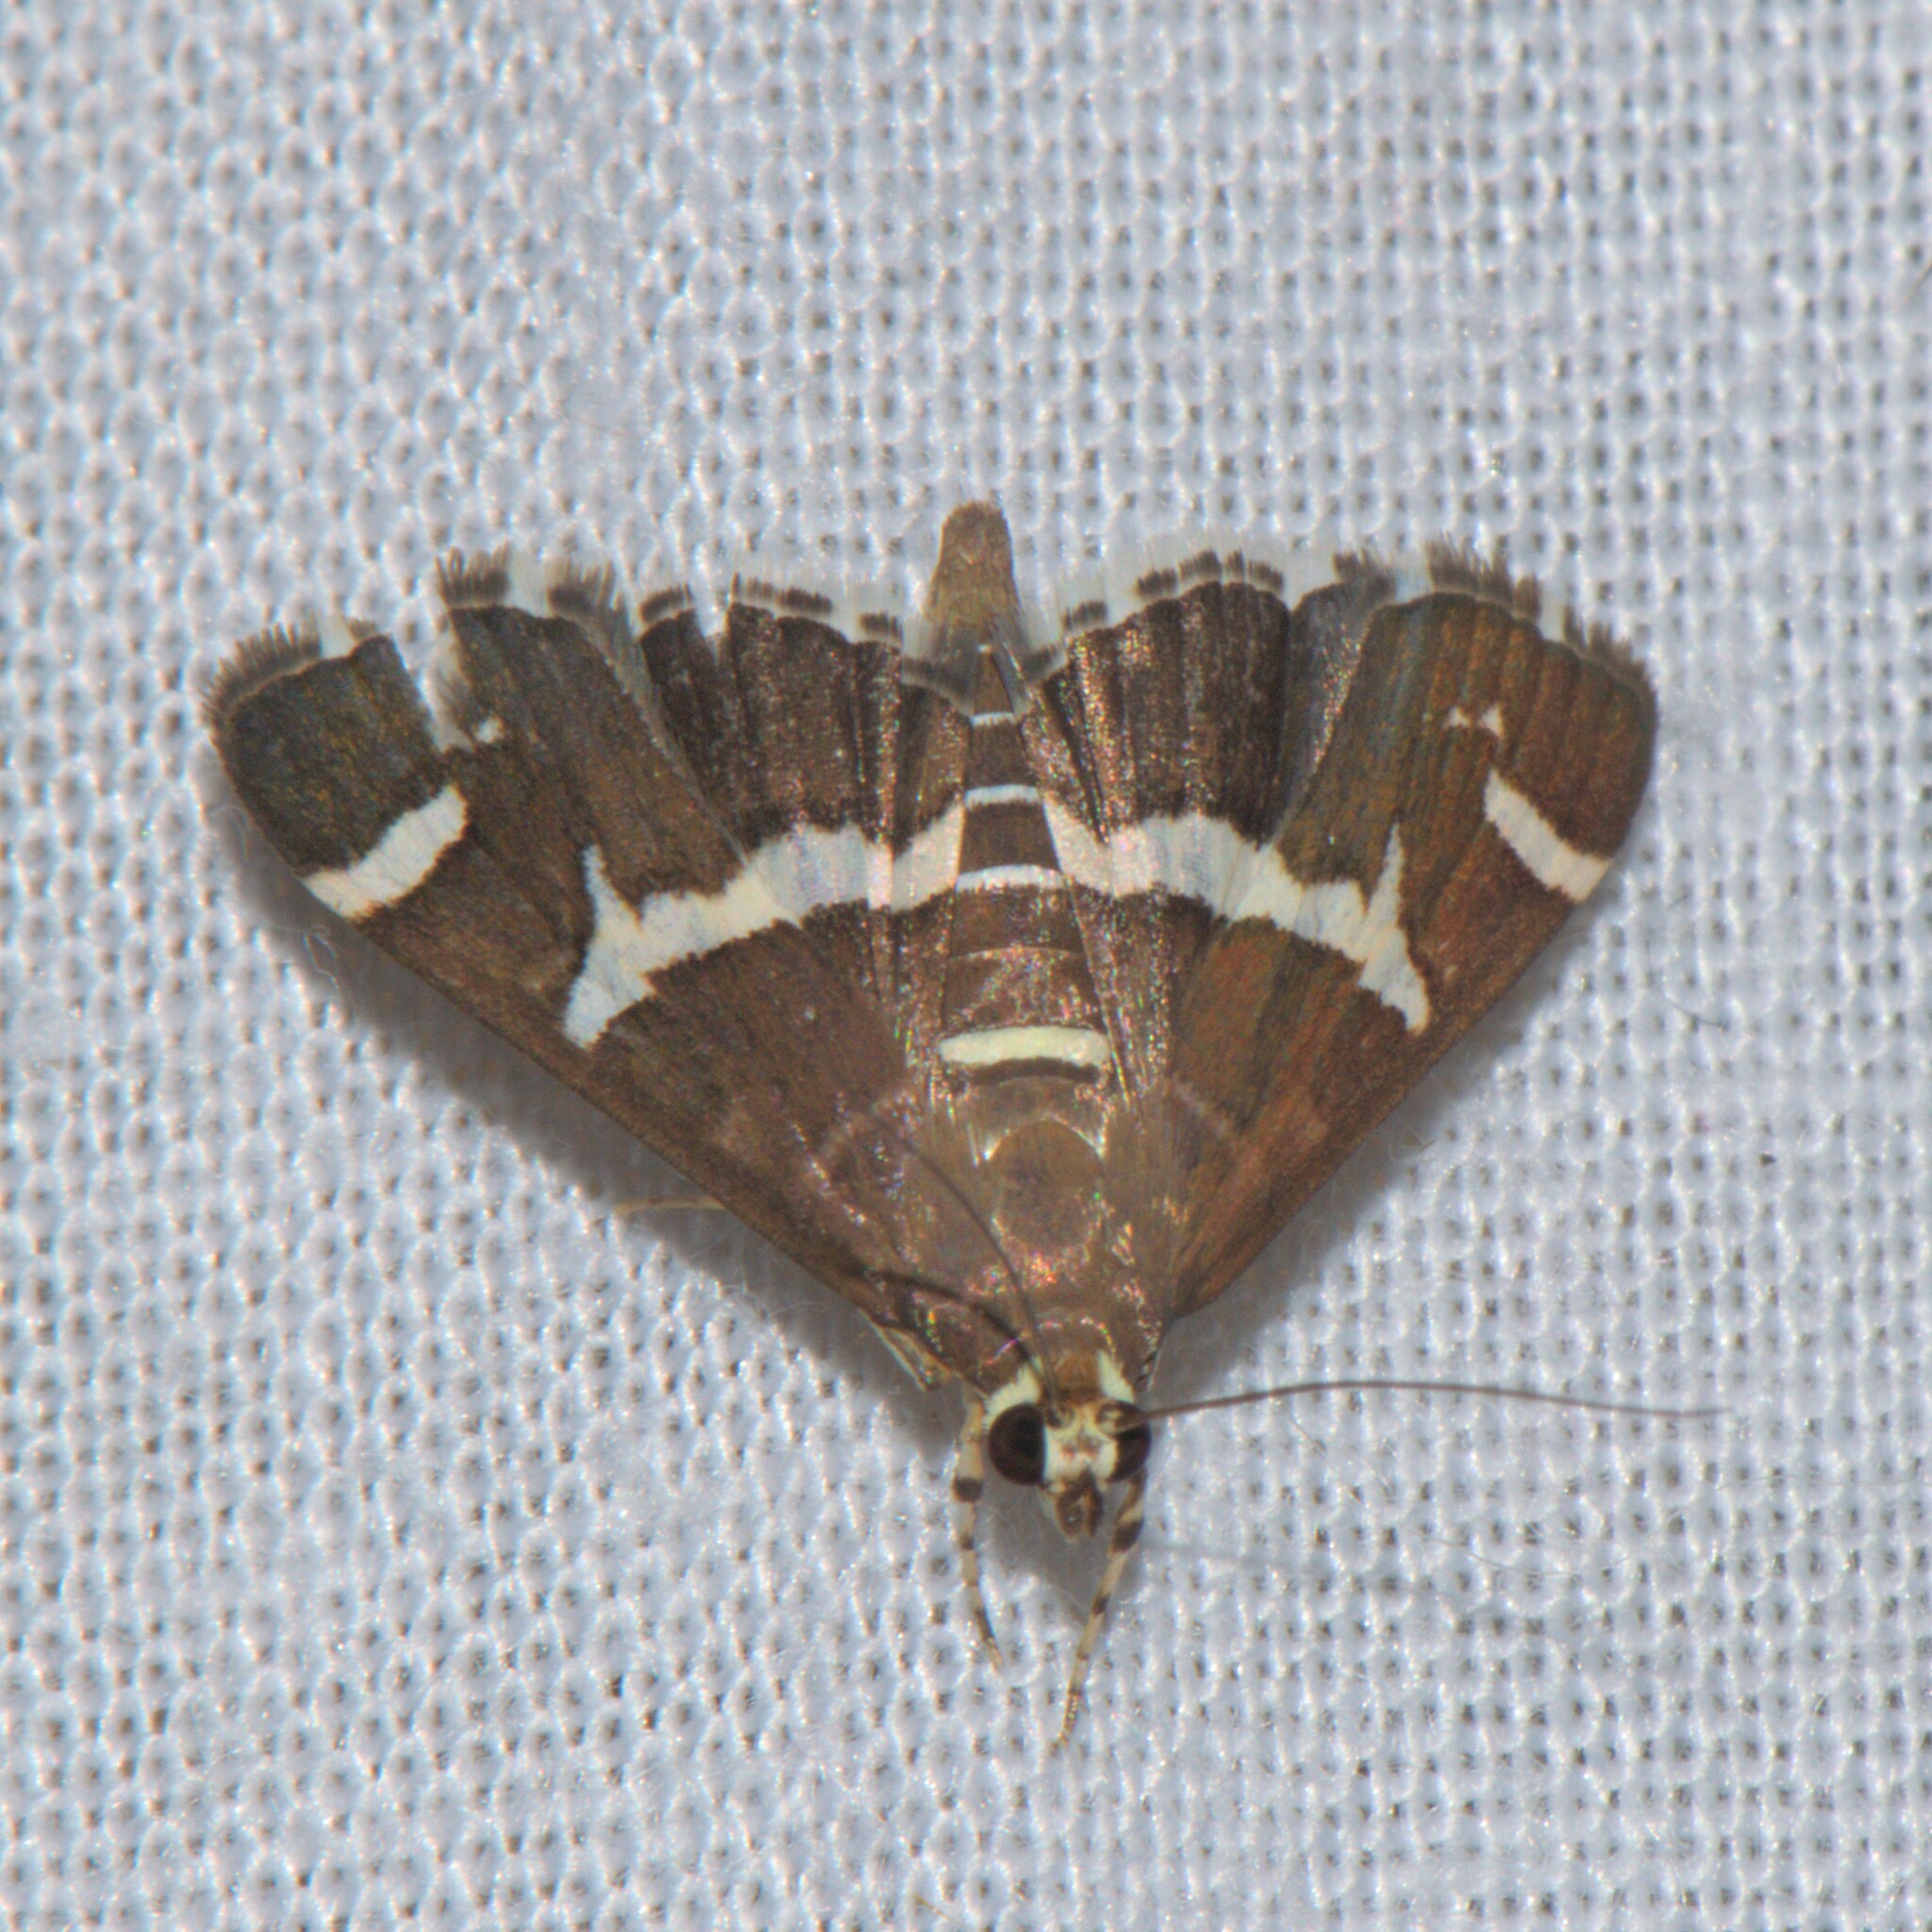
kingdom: Animalia
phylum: Arthropoda
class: Insecta
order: Lepidoptera
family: Crambidae
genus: Spoladea
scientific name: Spoladea recurvalis
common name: Beet webworm moth
